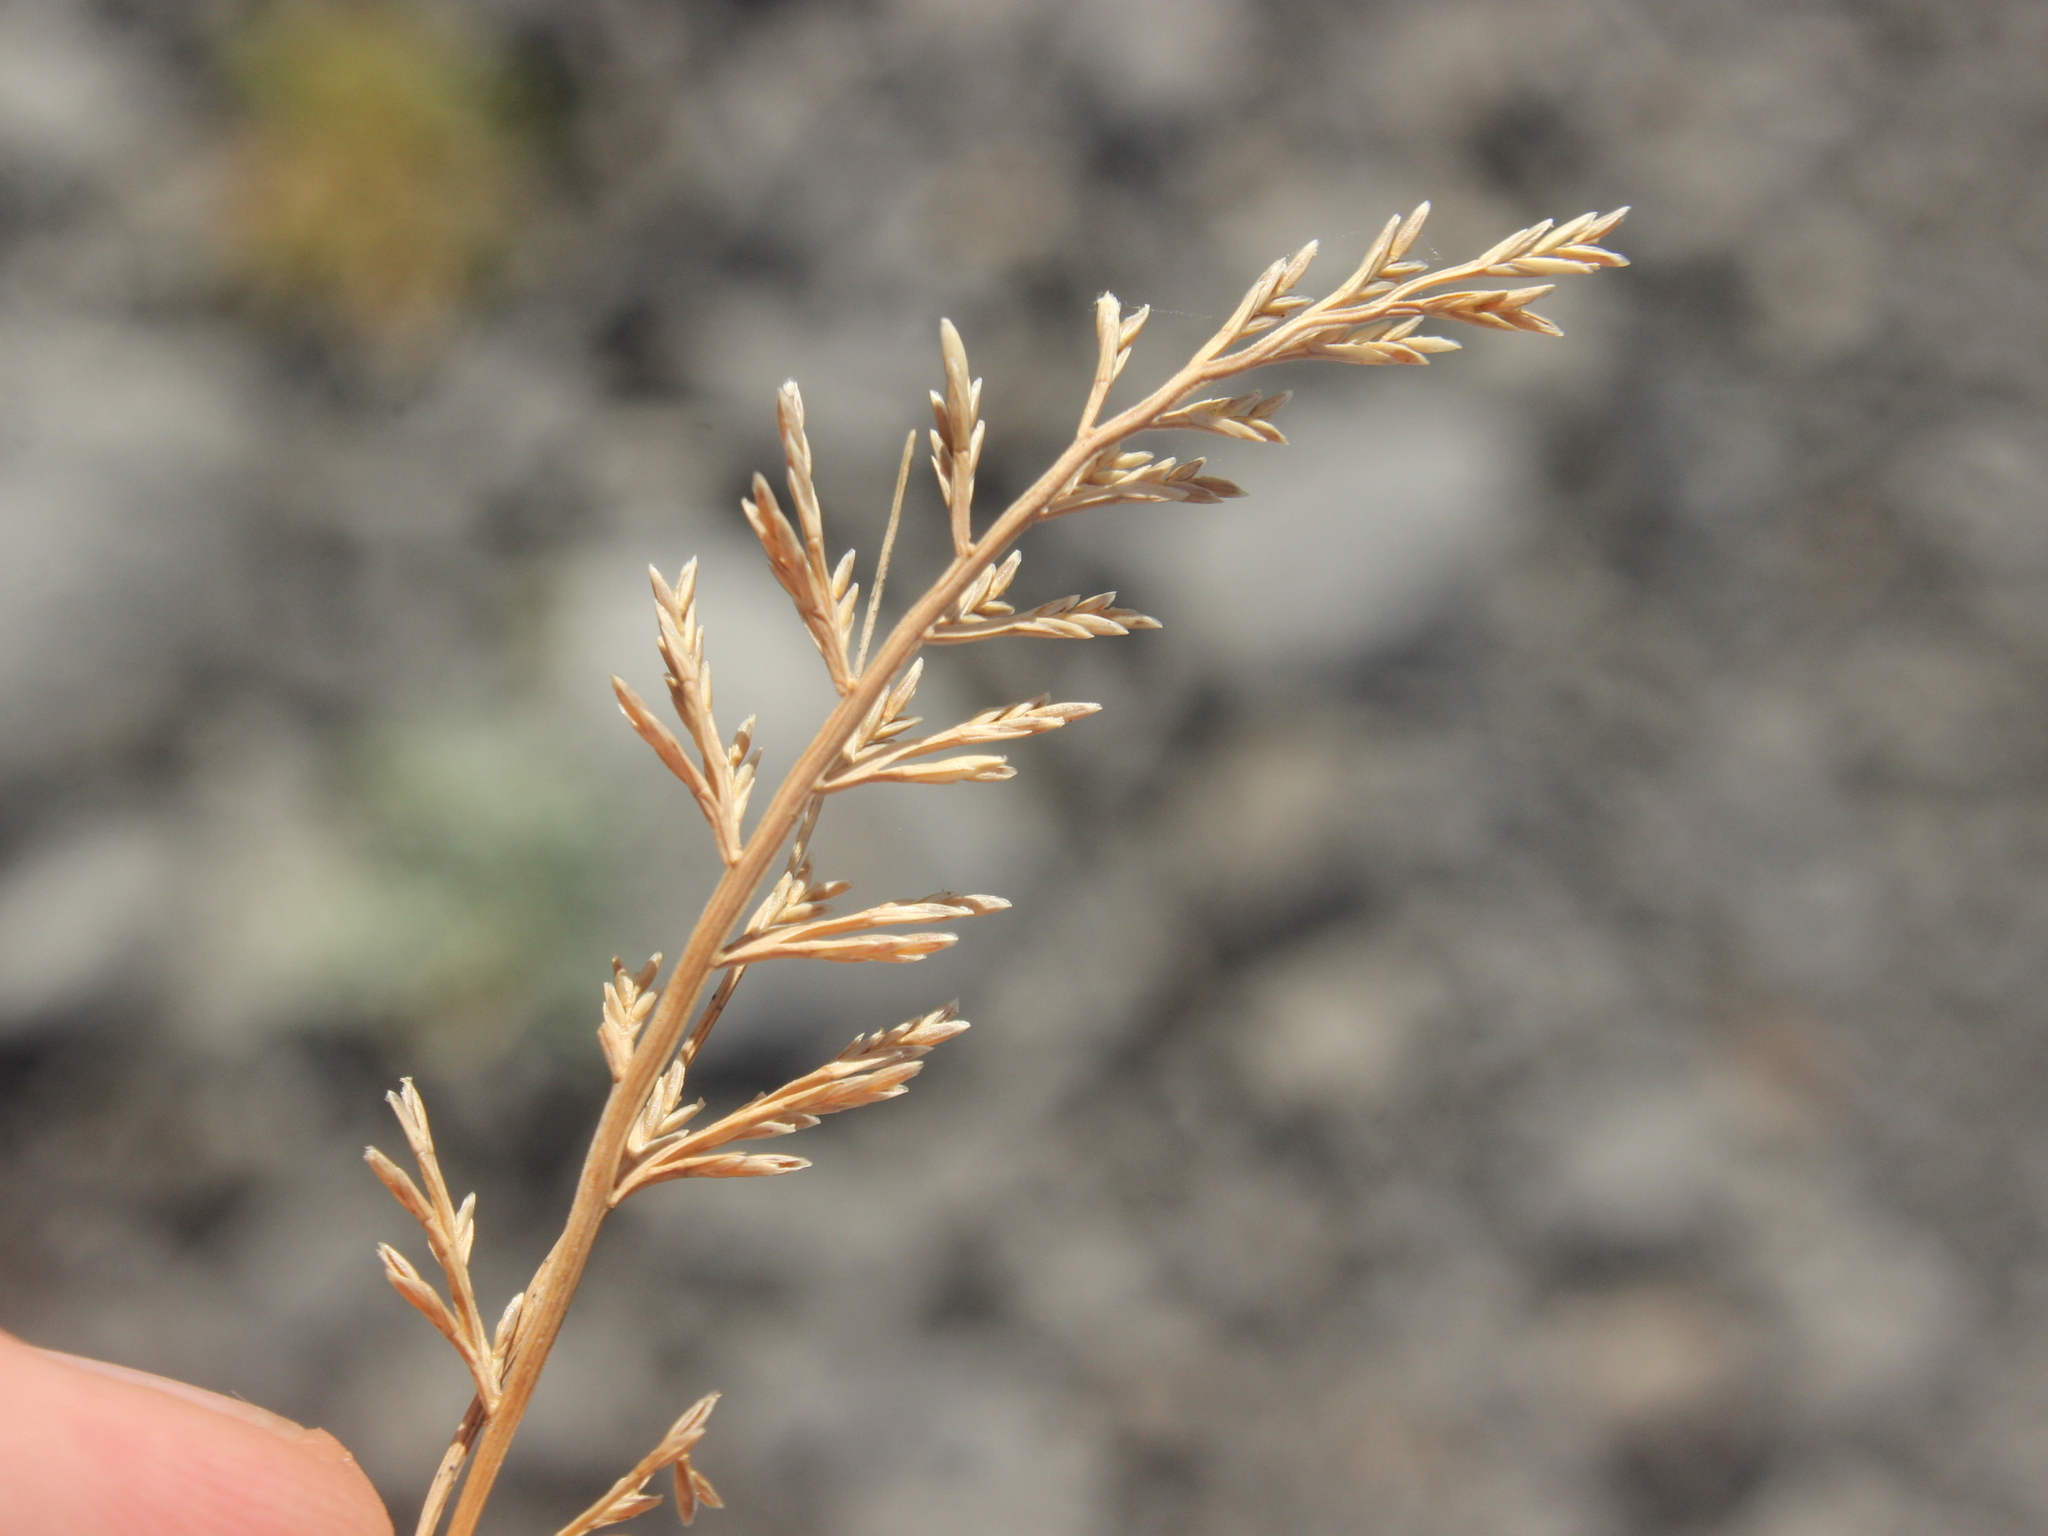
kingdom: Plantae
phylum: Tracheophyta
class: Liliopsida
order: Poales
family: Poaceae
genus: Catapodium
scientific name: Catapodium rigidum
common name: Fern-grass
